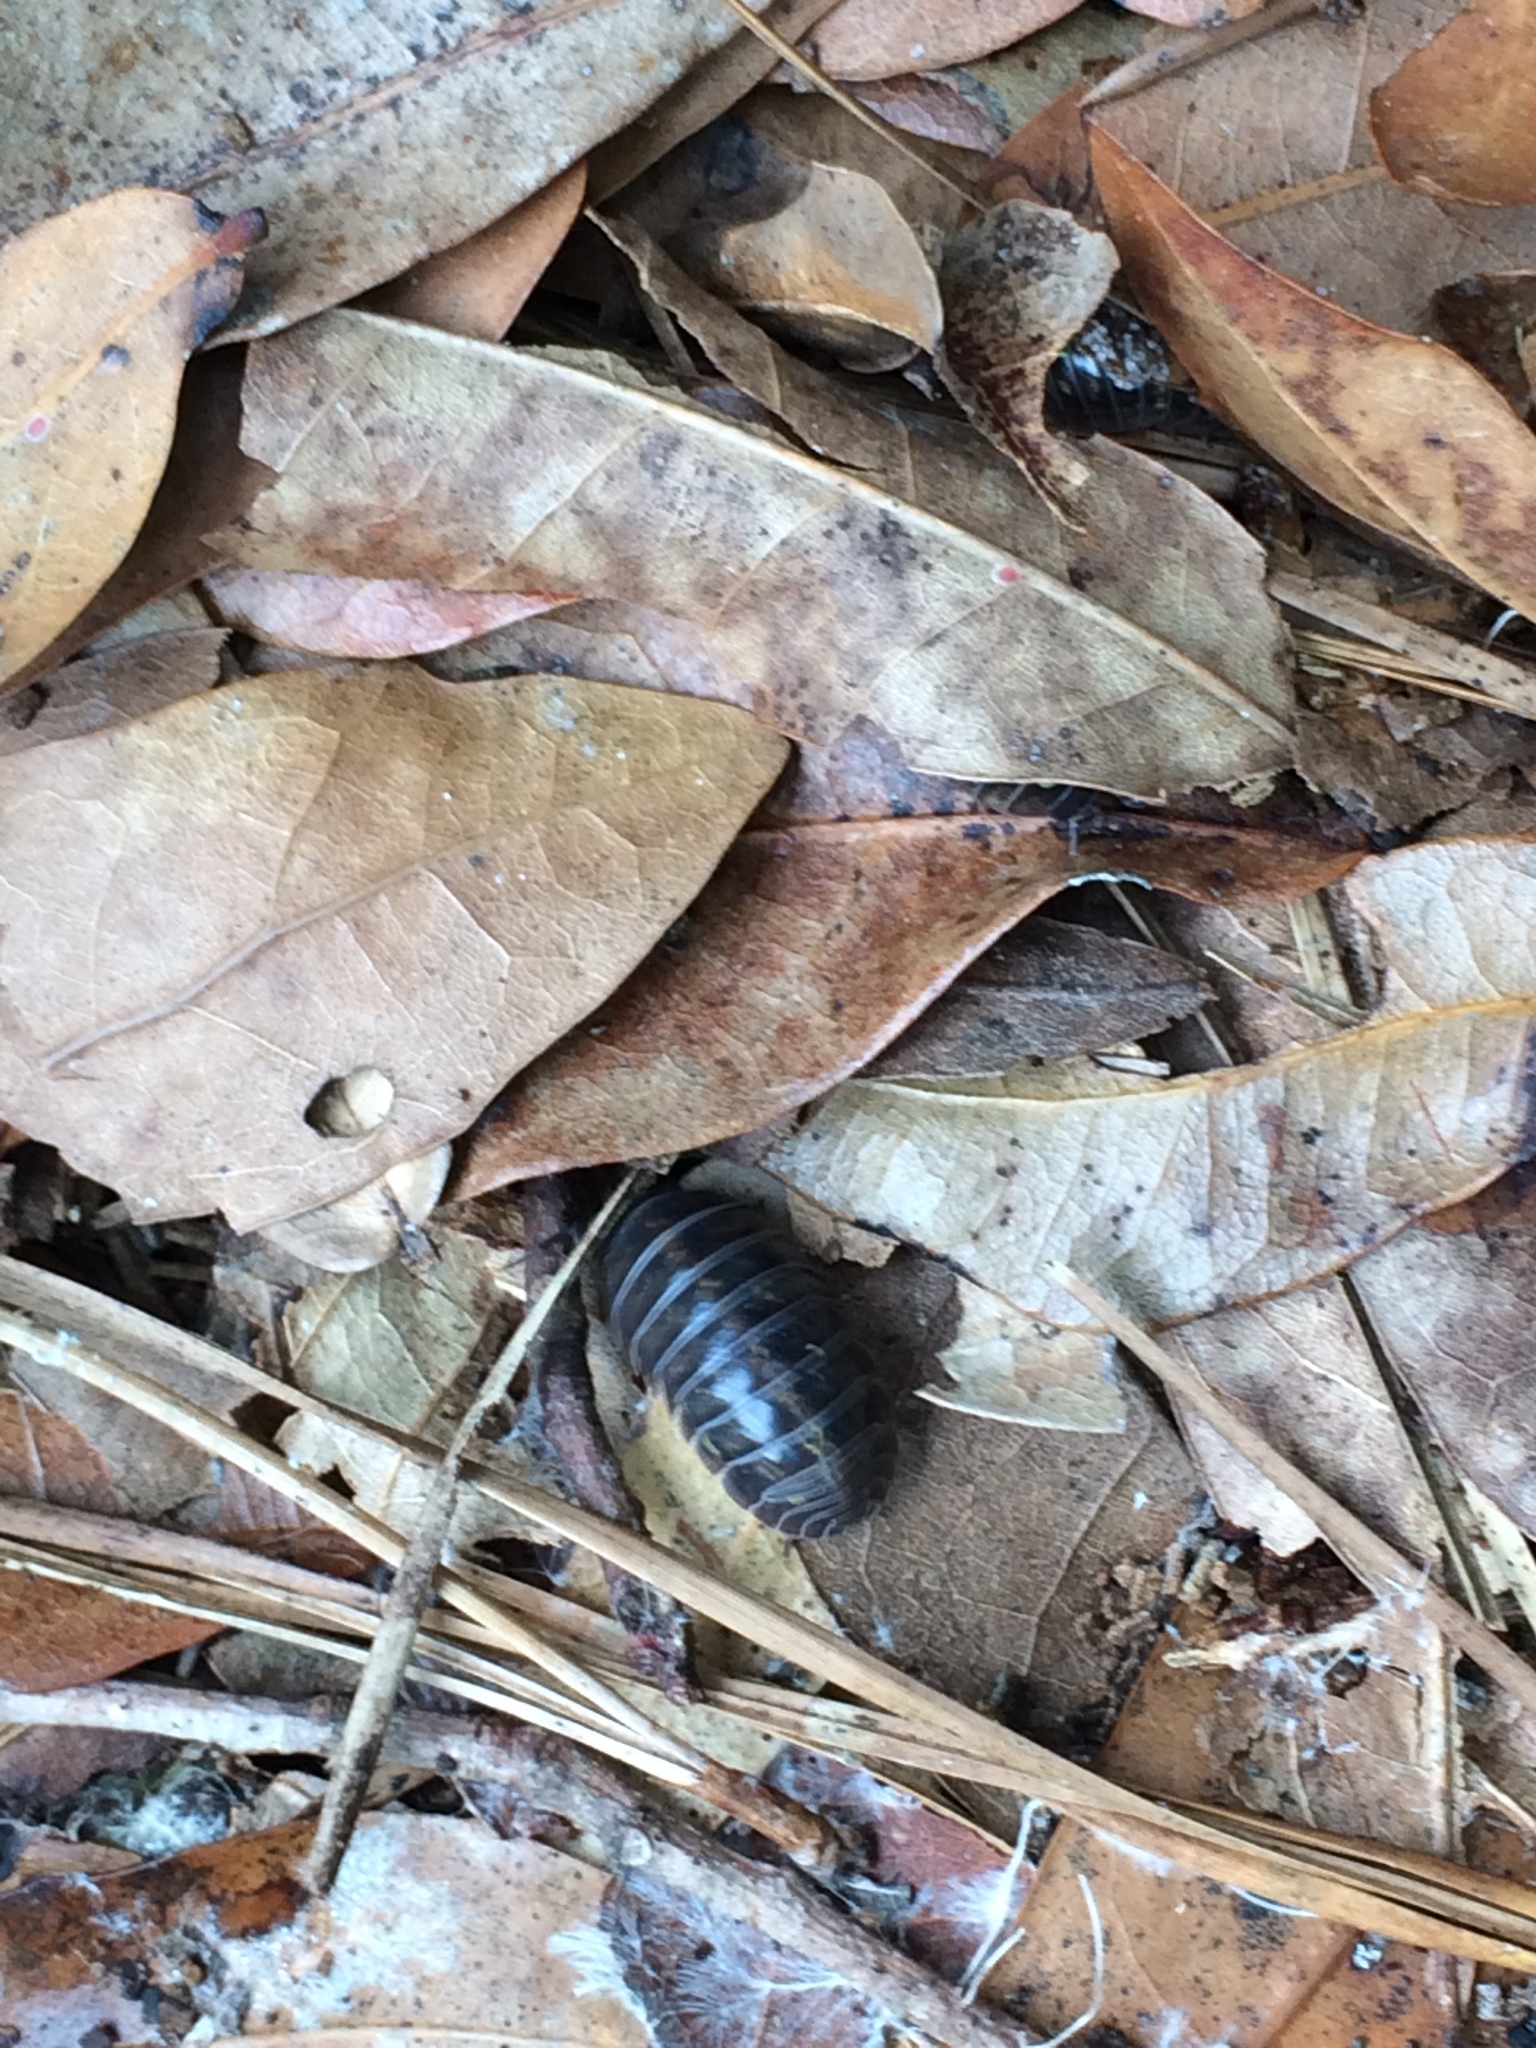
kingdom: Animalia
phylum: Arthropoda
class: Malacostraca
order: Isopoda
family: Armadillidiidae
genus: Armadillidium
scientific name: Armadillidium vulgare
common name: Common pill woodlouse
